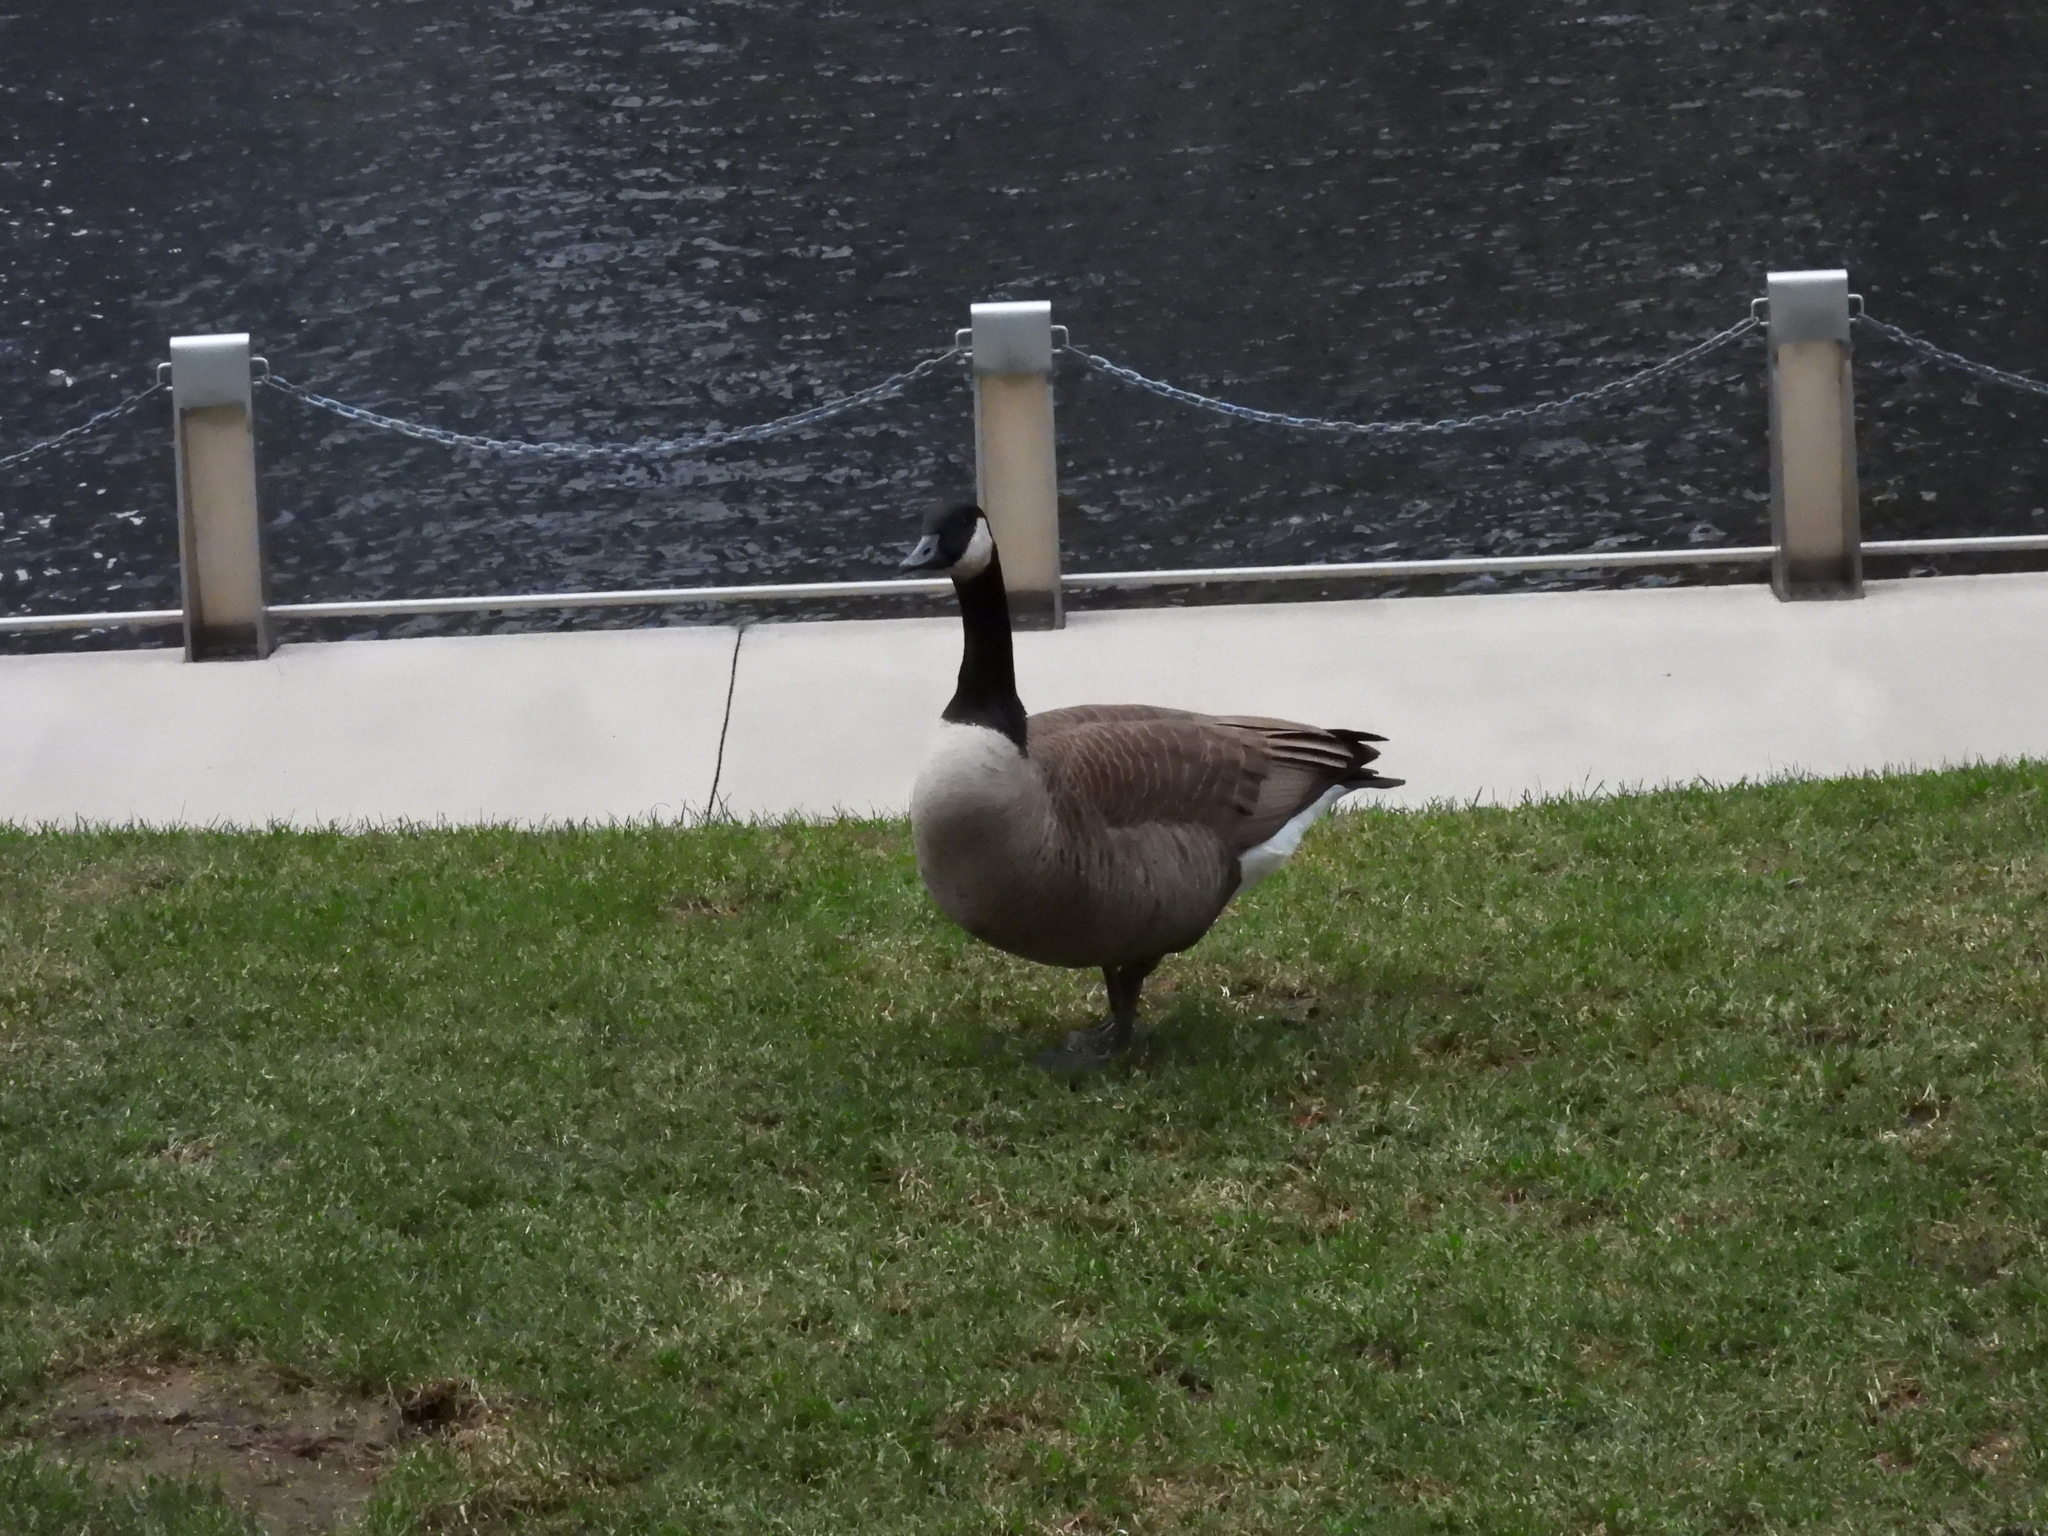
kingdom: Animalia
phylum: Chordata
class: Aves
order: Anseriformes
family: Anatidae
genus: Branta
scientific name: Branta canadensis
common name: Canada goose
